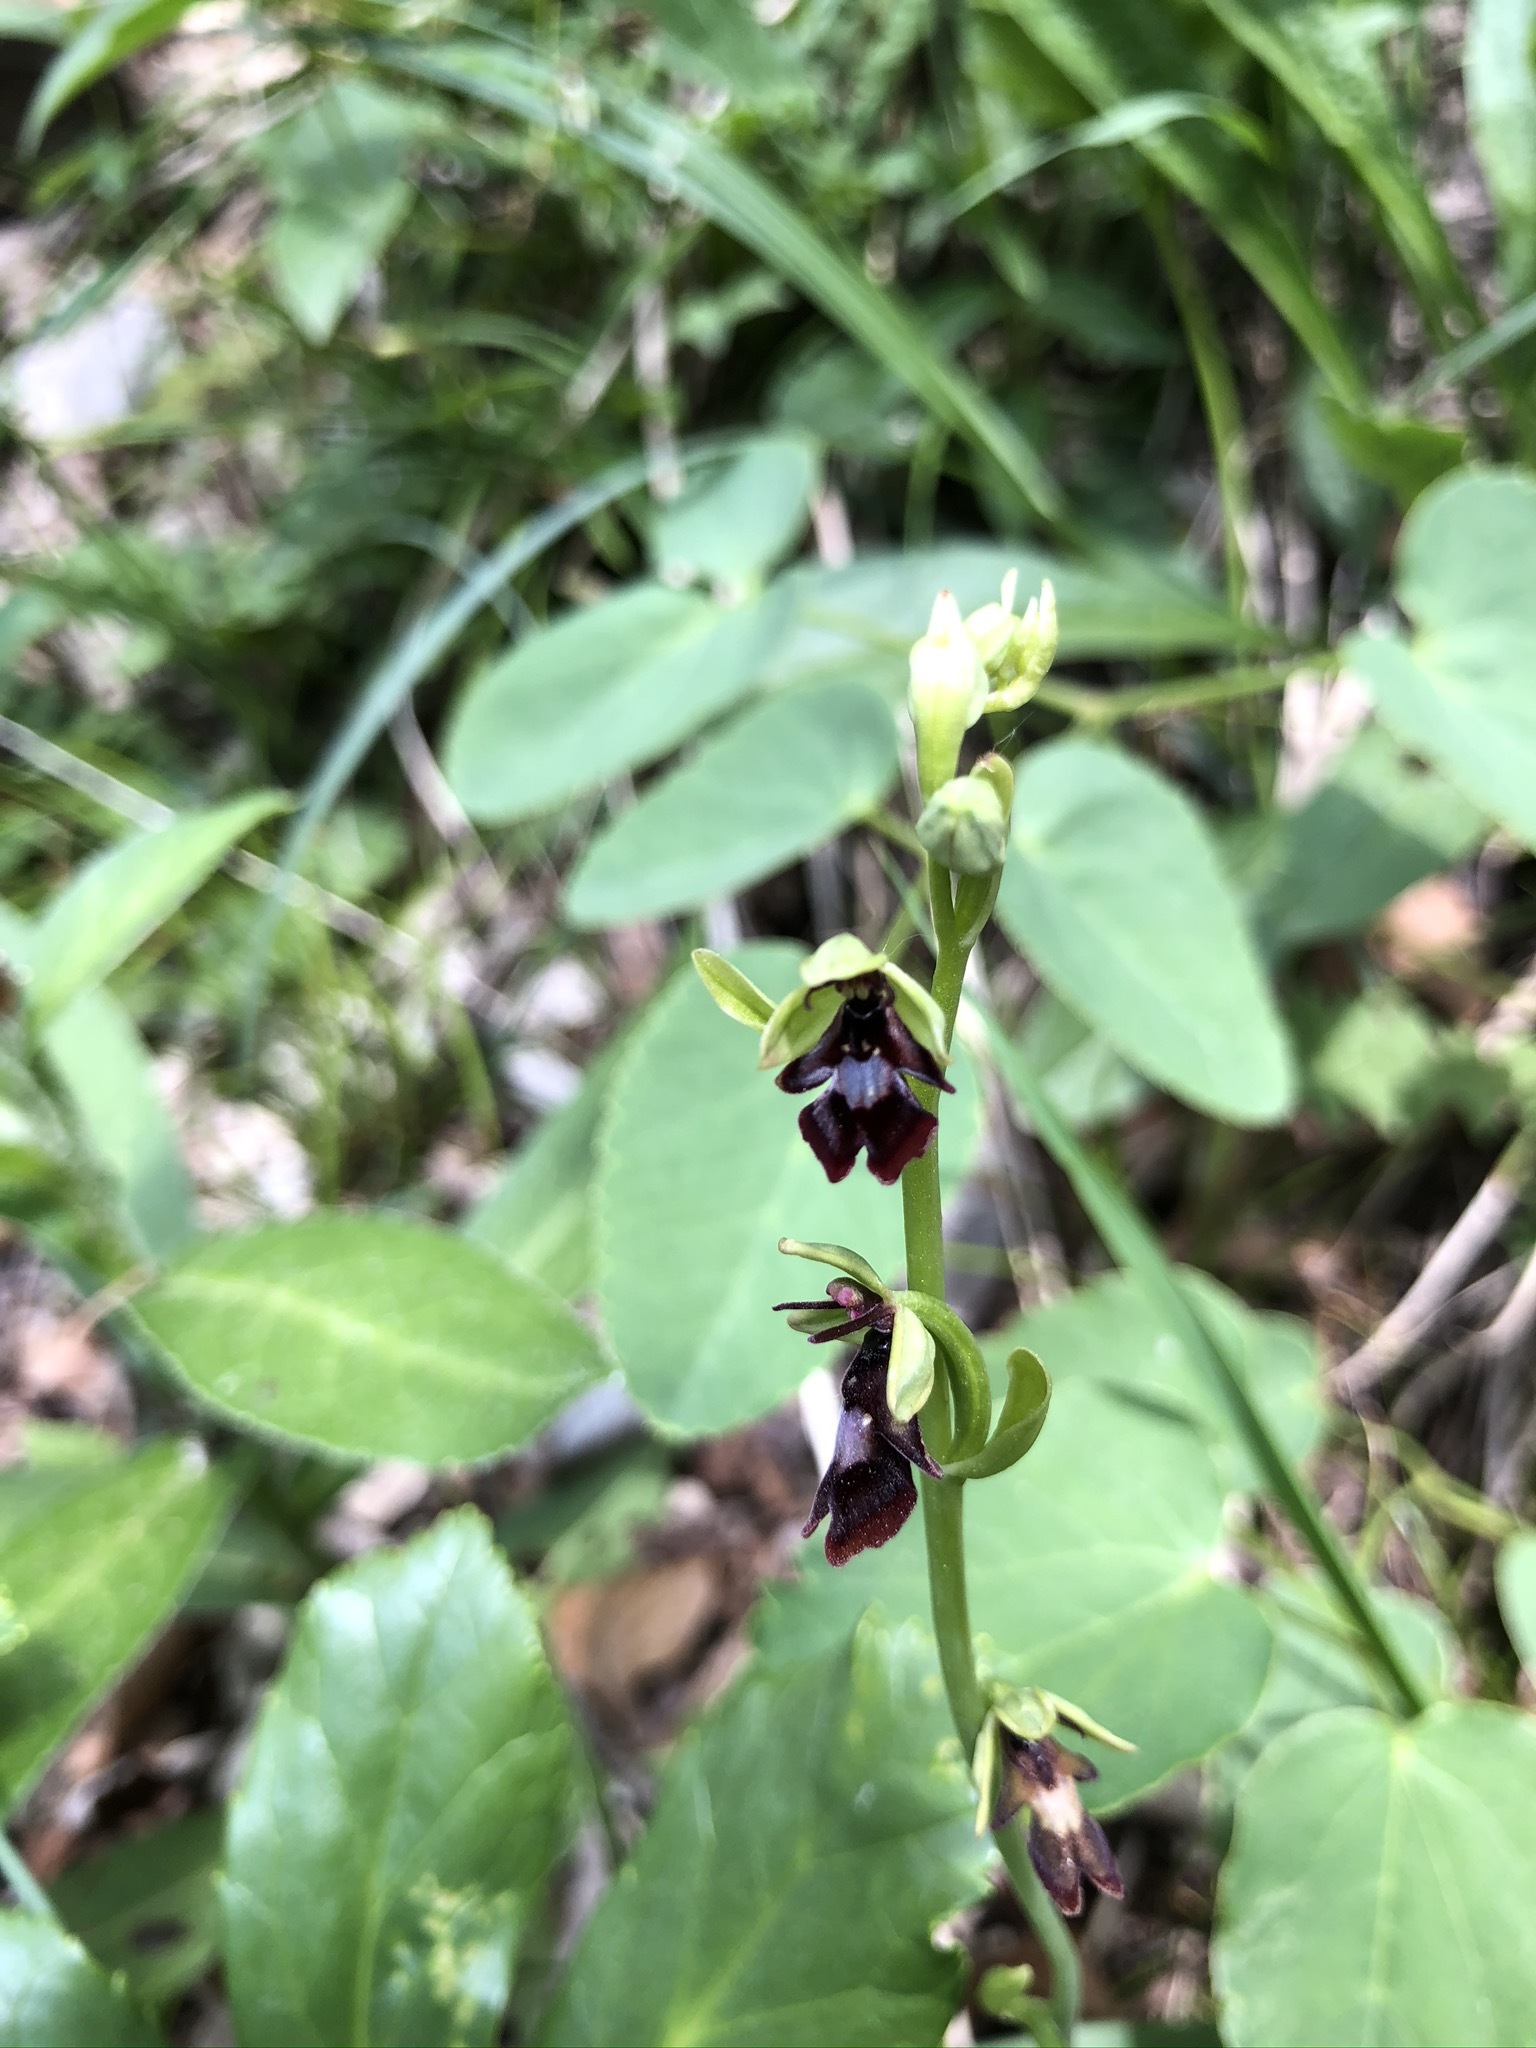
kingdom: Plantae
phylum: Tracheophyta
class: Liliopsida
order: Asparagales
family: Orchidaceae
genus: Ophrys
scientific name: Ophrys insectifera
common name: Fly orchid
